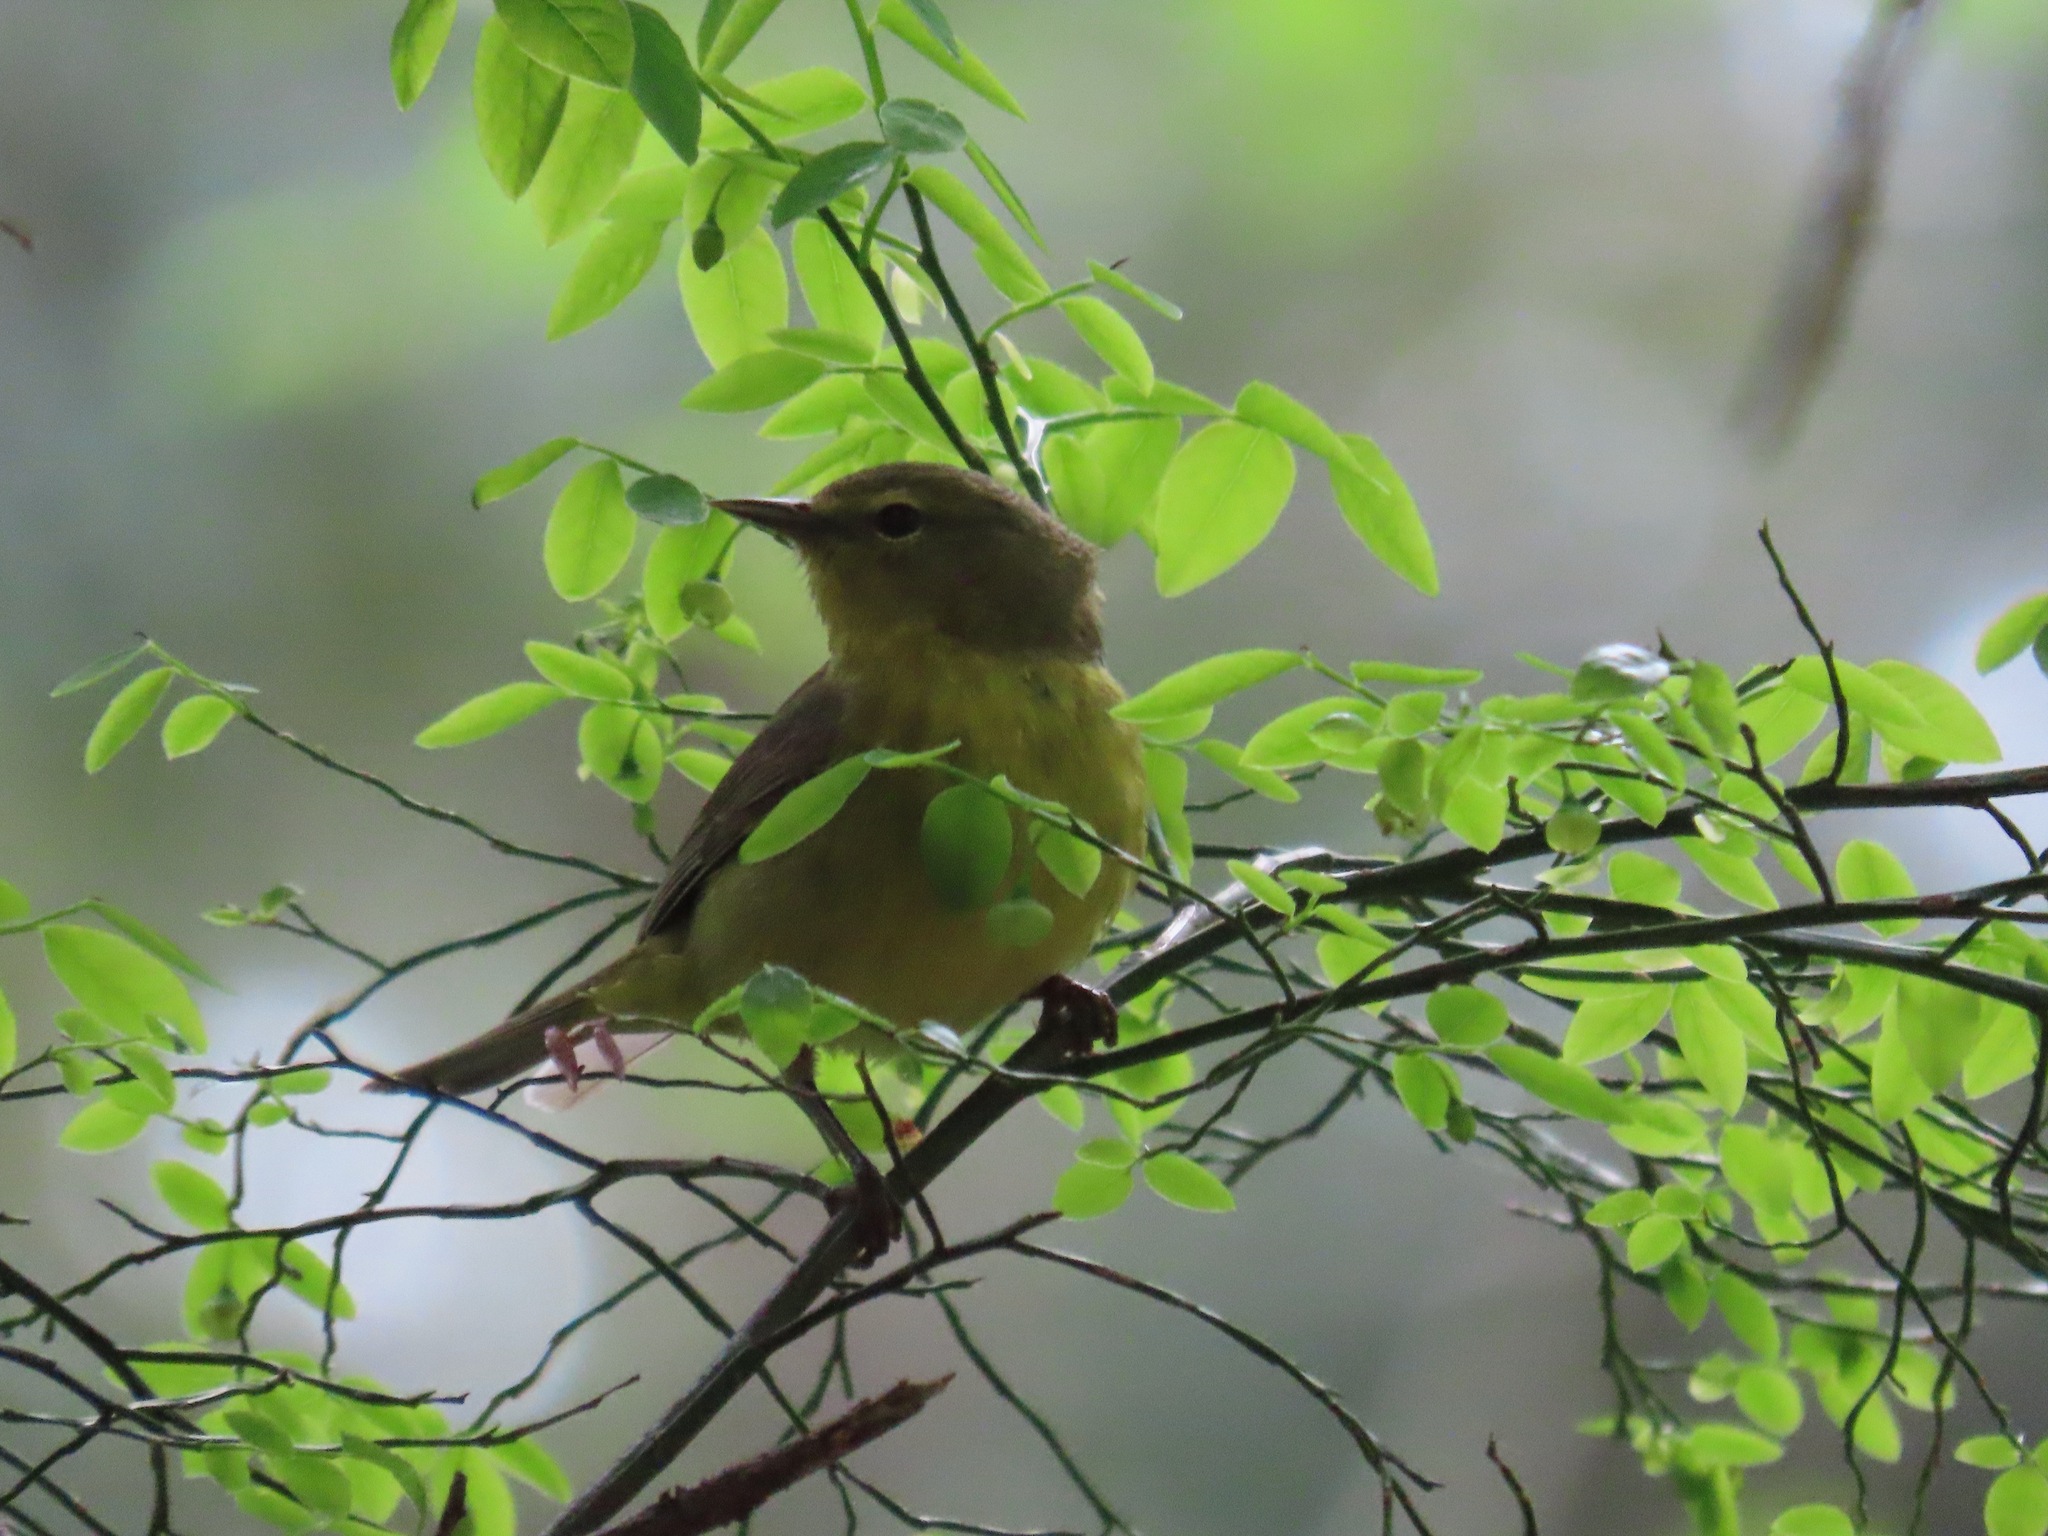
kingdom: Animalia
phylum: Chordata
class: Aves
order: Passeriformes
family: Parulidae
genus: Leiothlypis
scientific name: Leiothlypis celata
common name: Orange-crowned warbler
